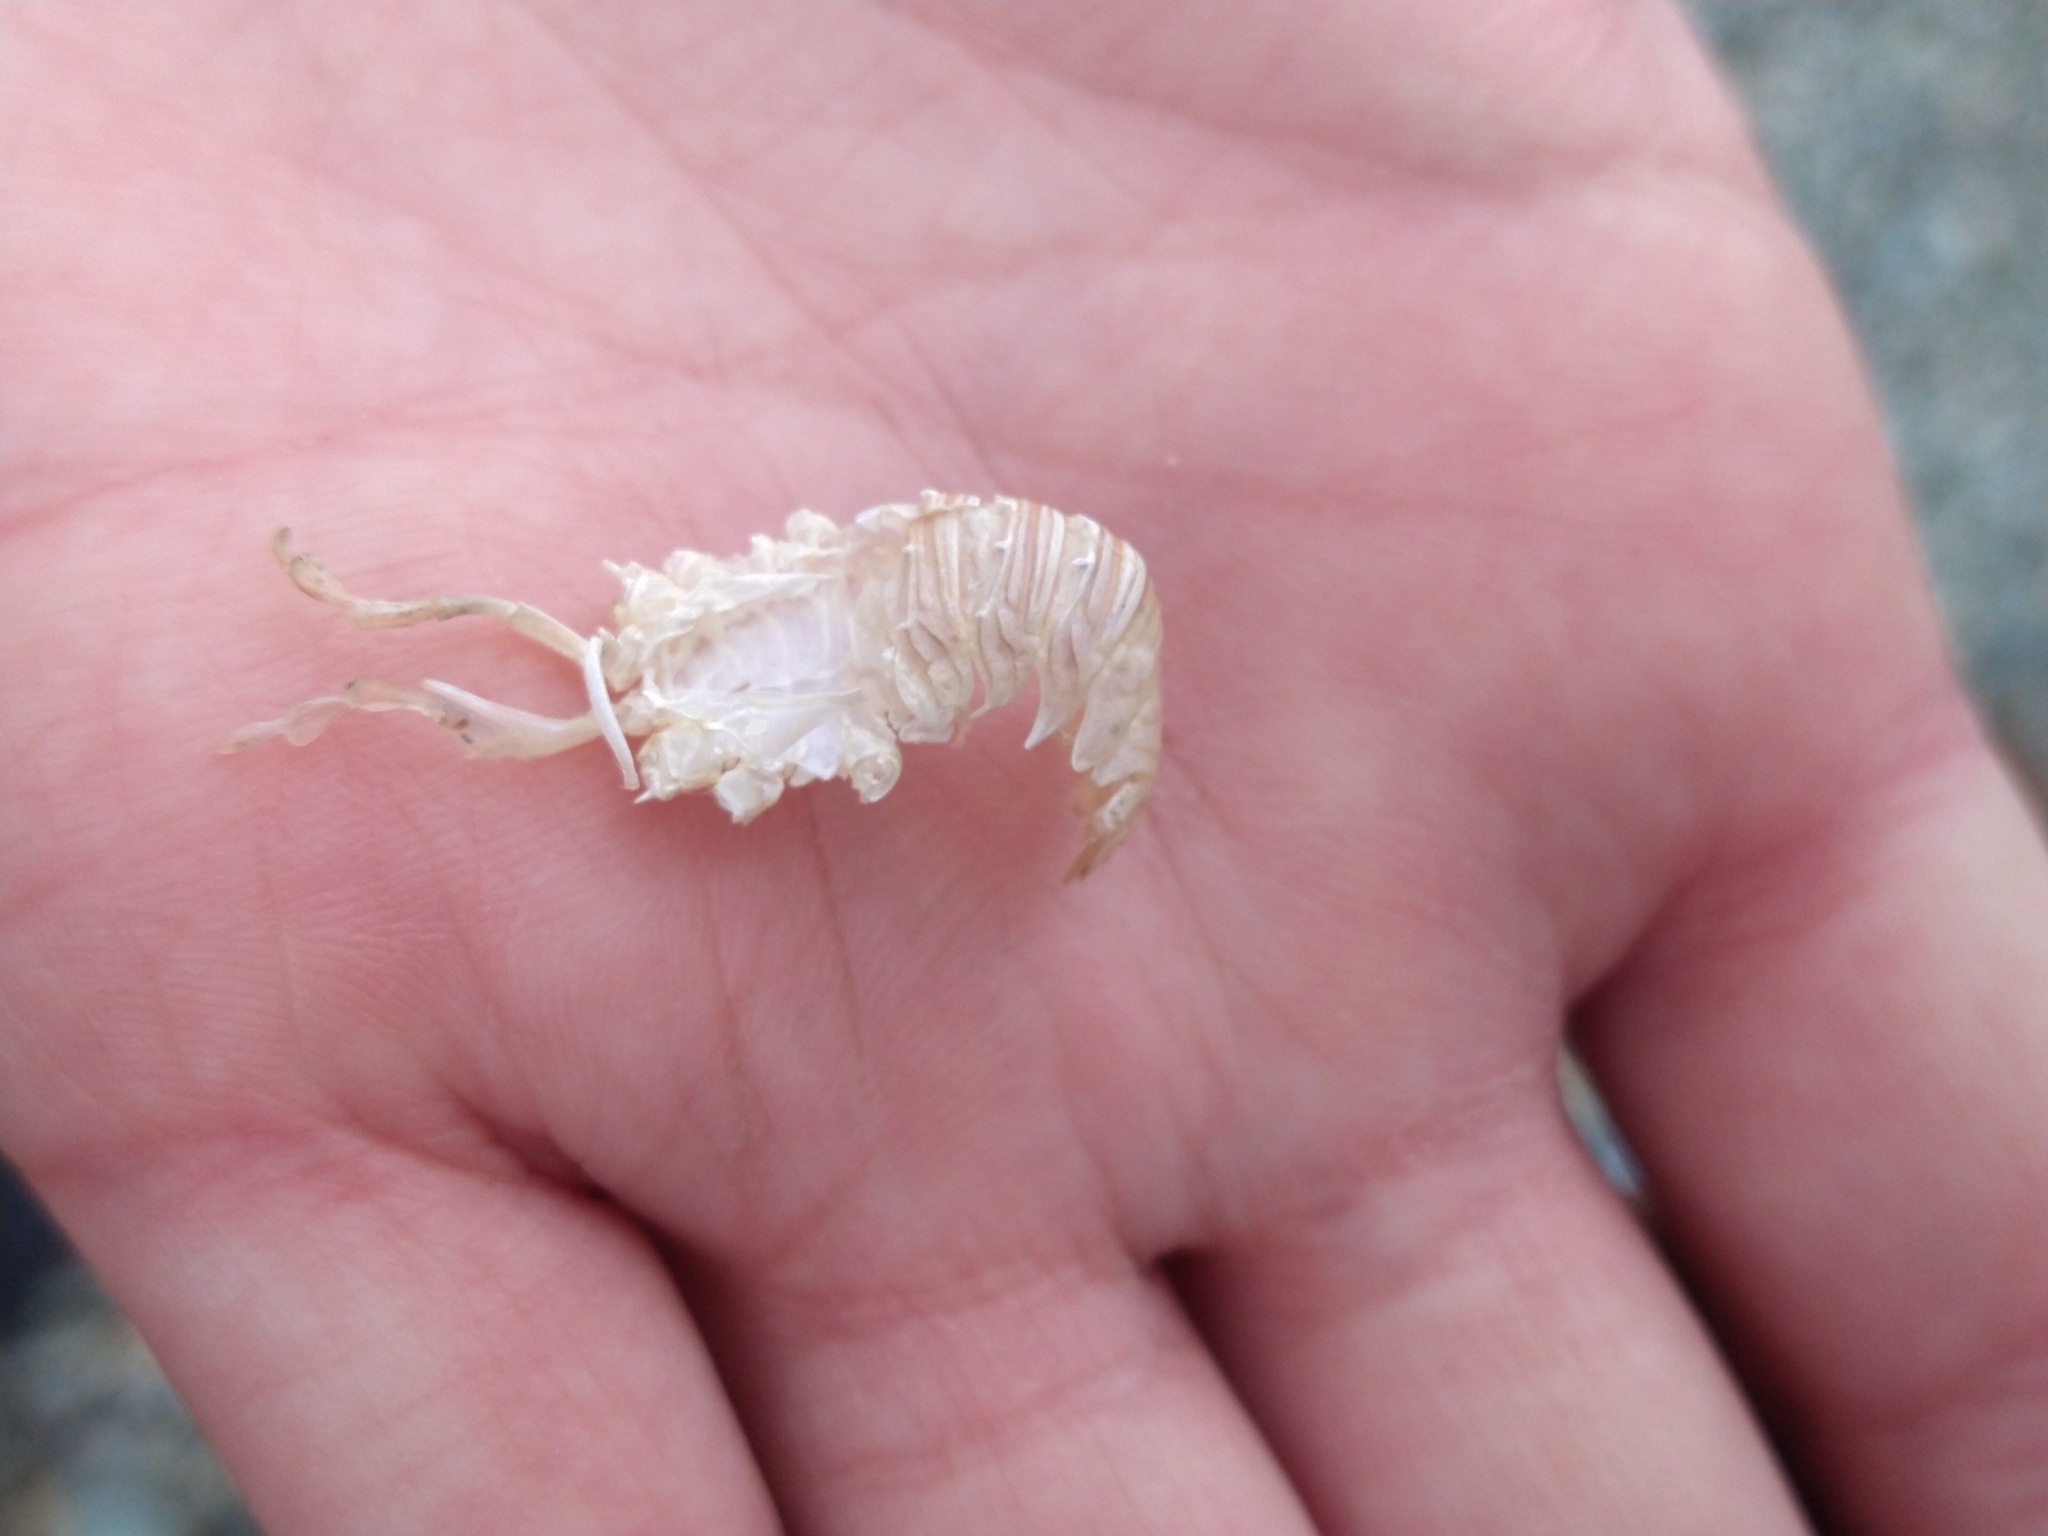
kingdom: Animalia
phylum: Arthropoda
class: Malacostraca
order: Decapoda
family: Munididae
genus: Grimothea
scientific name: Grimothea gregaria
